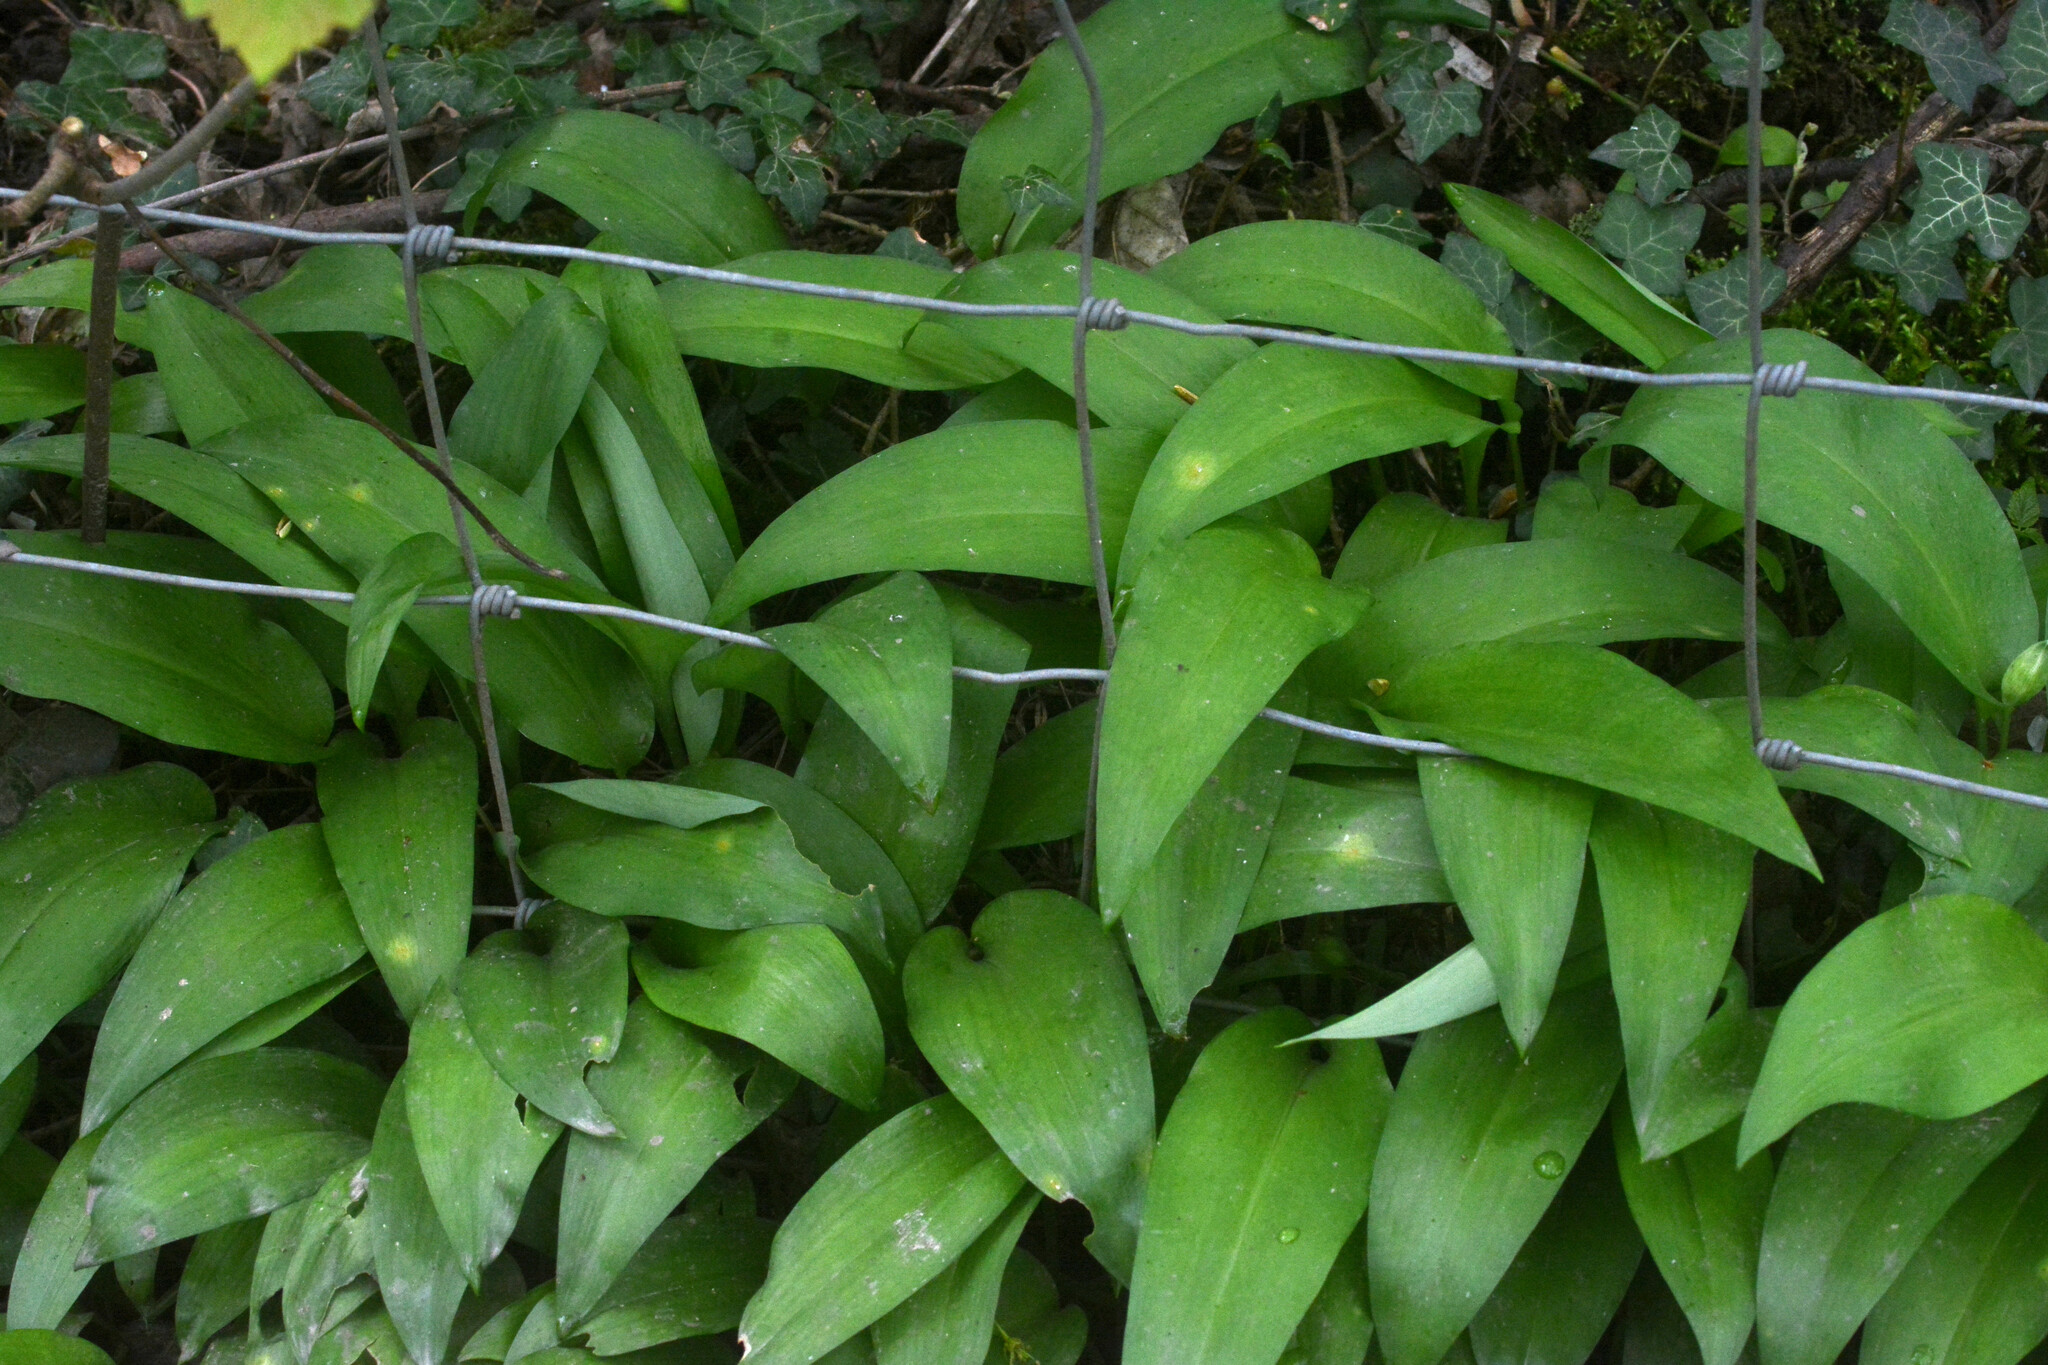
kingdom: Plantae
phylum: Tracheophyta
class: Liliopsida
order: Asparagales
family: Amaryllidaceae
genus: Allium
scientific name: Allium ursinum
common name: Ramsons
